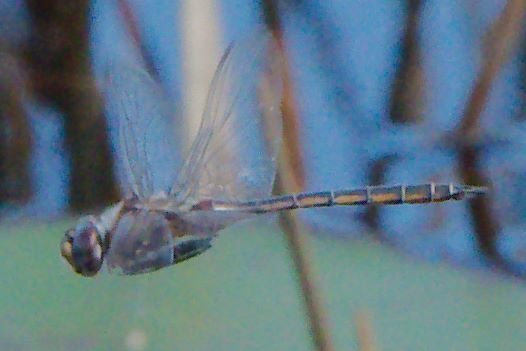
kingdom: Animalia
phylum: Arthropoda
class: Insecta
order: Odonata
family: Corduliidae
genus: Epitheca
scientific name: Epitheca stella
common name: Florida baskettail
